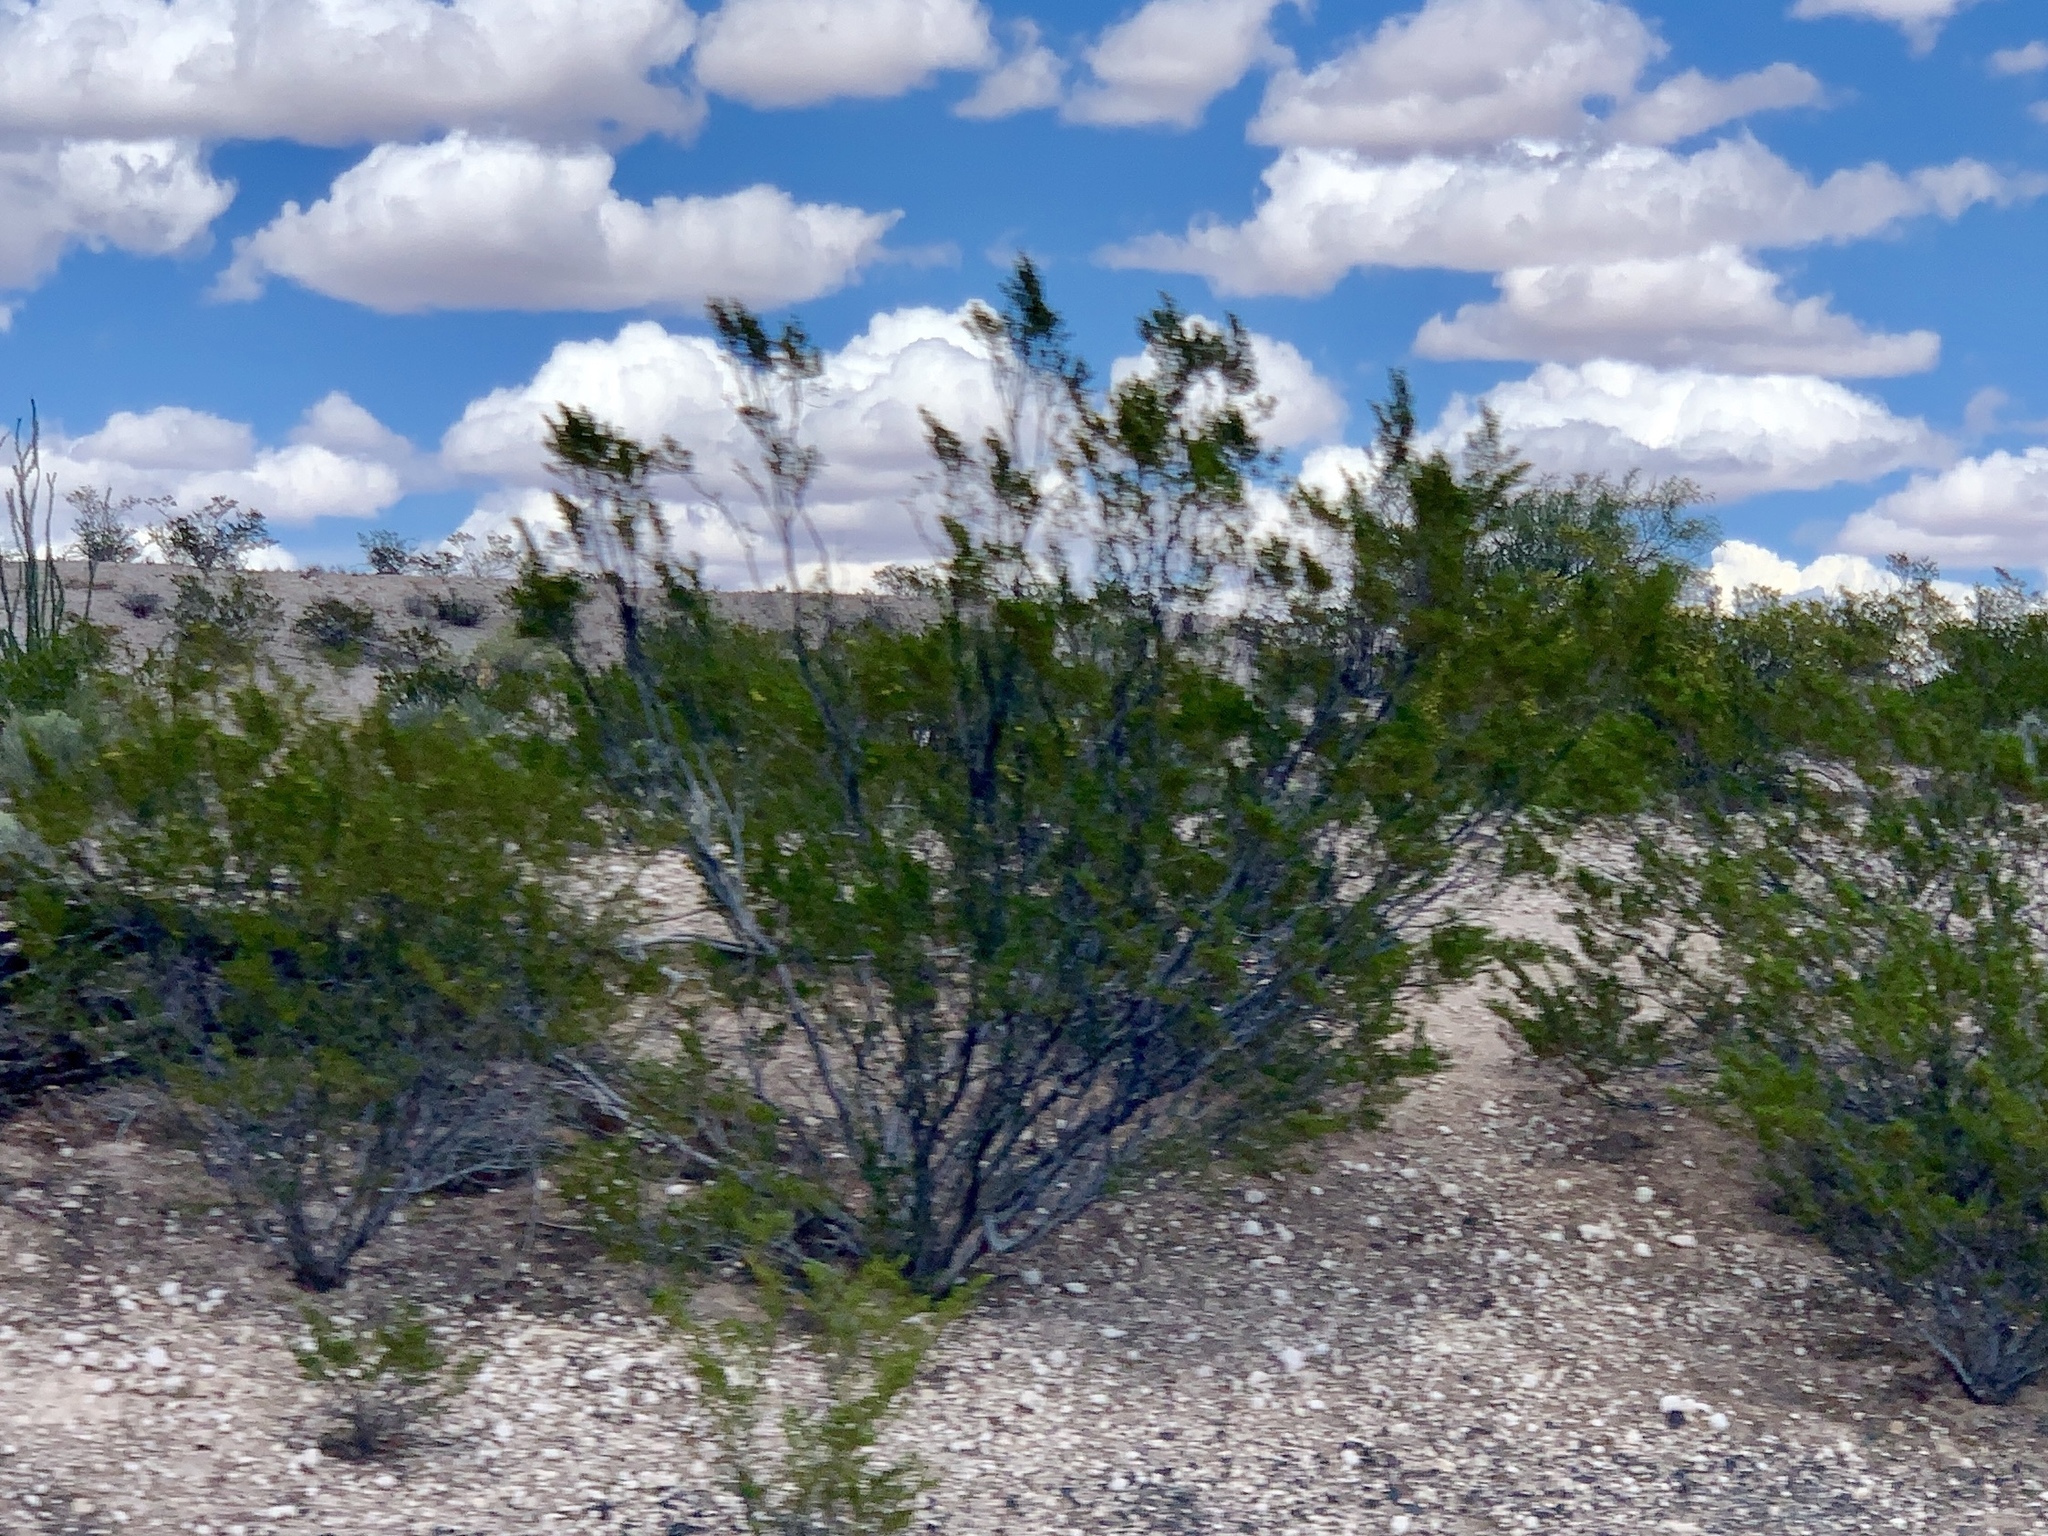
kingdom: Plantae
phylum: Tracheophyta
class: Magnoliopsida
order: Zygophyllales
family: Zygophyllaceae
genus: Larrea
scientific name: Larrea tridentata
